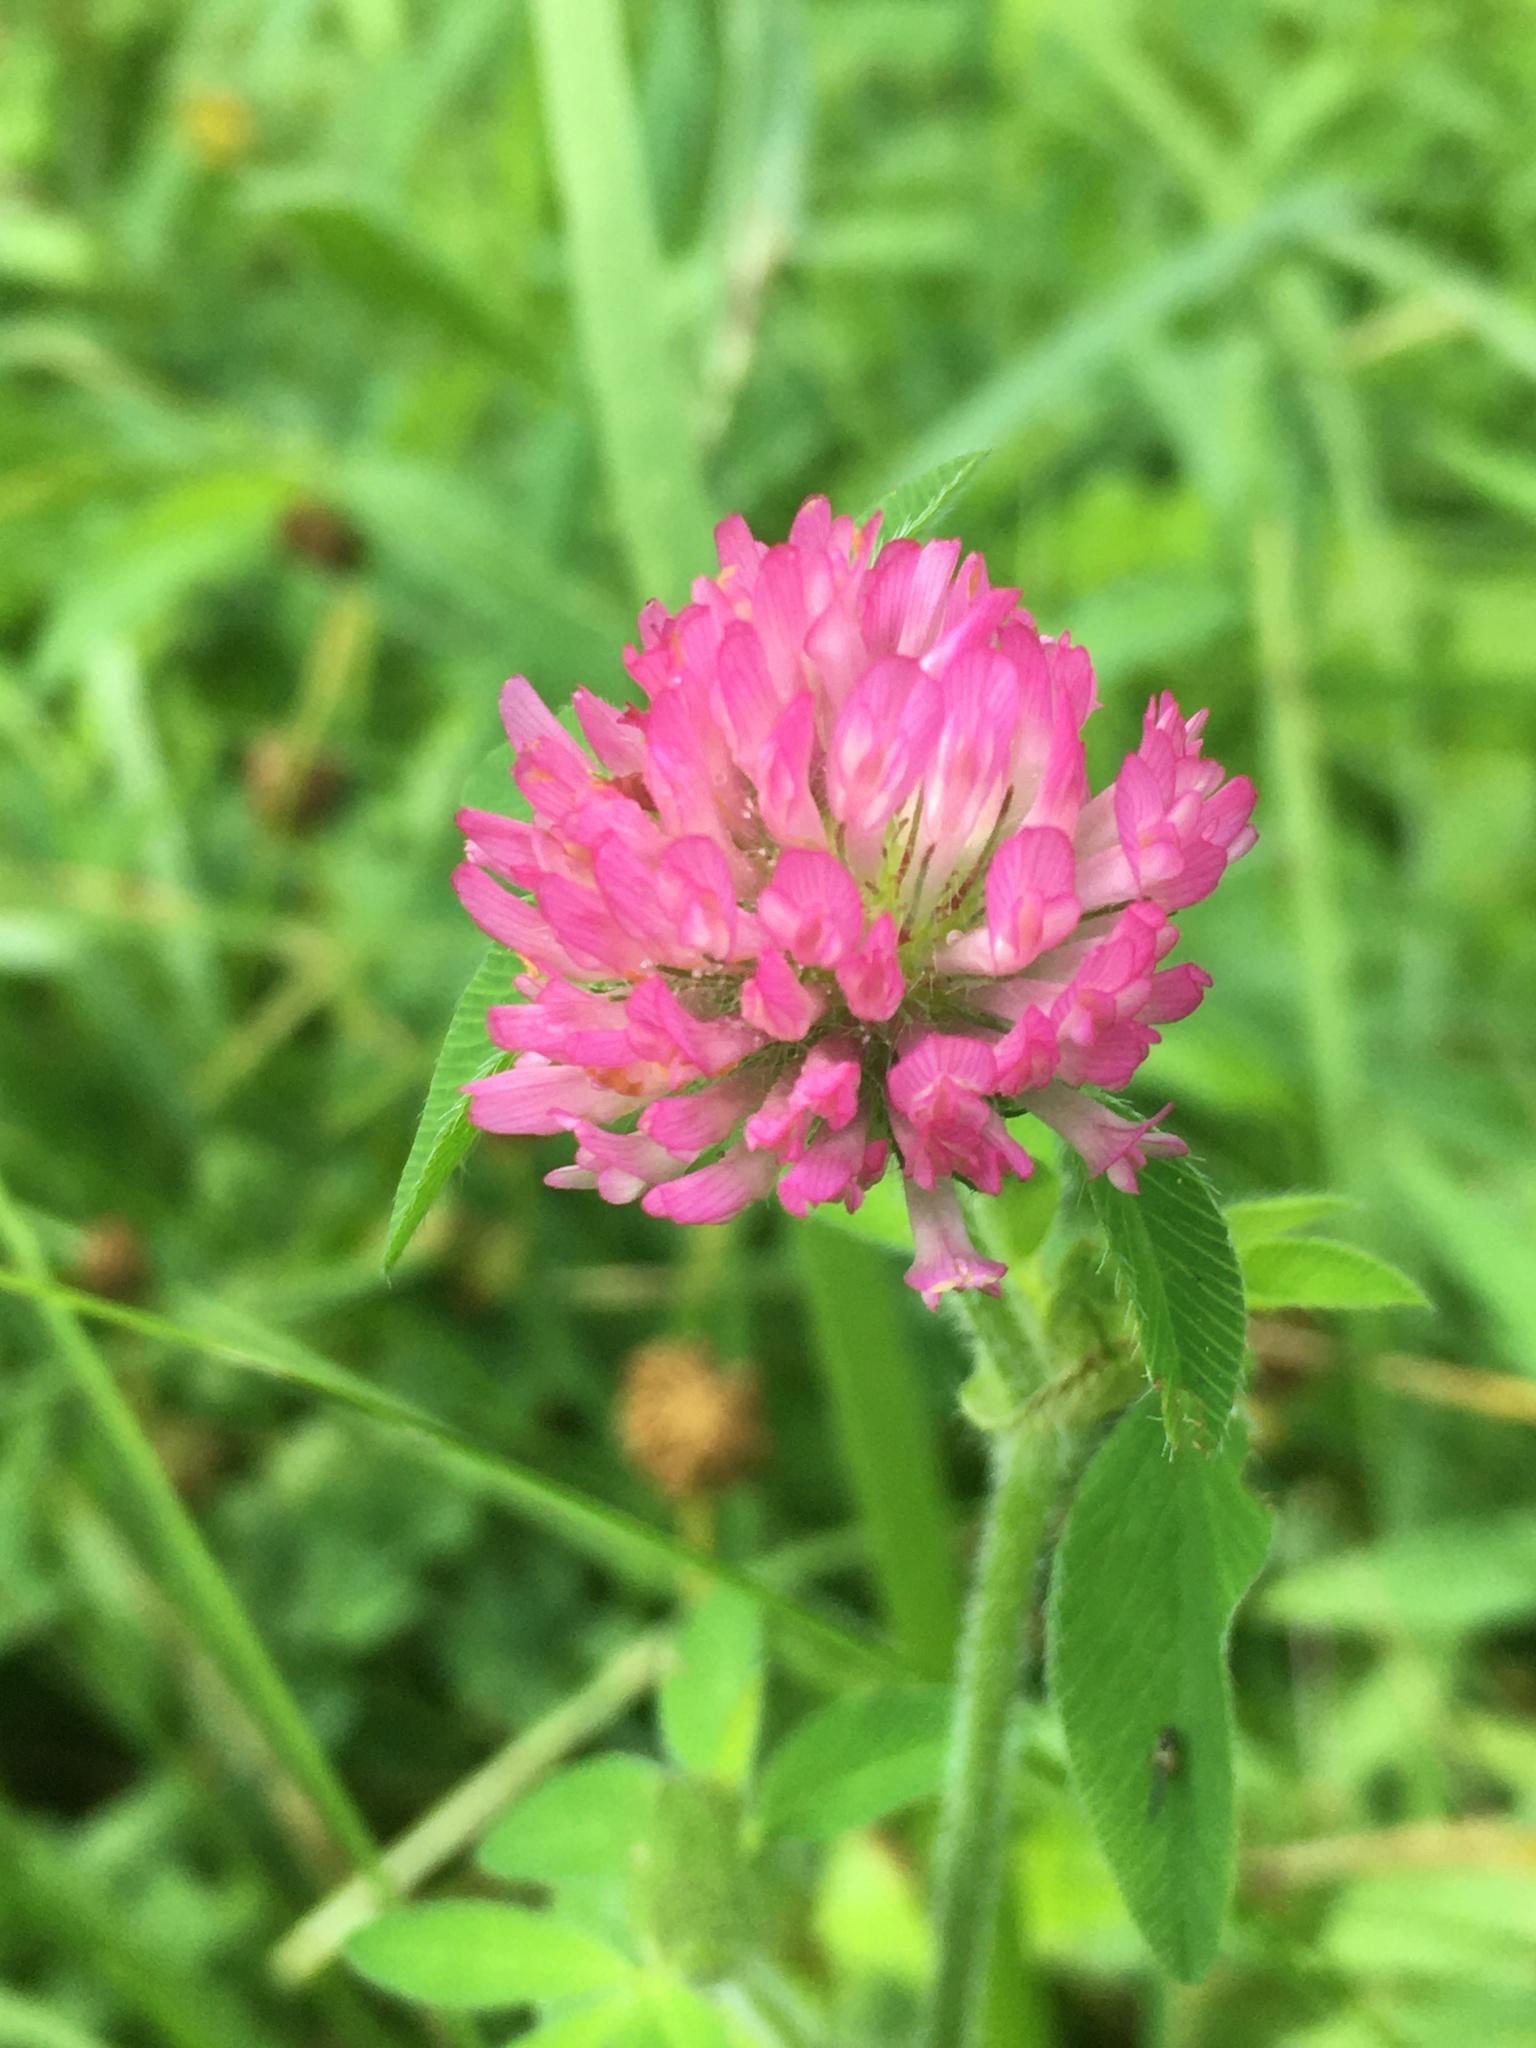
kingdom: Plantae
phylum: Tracheophyta
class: Magnoliopsida
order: Fabales
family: Fabaceae
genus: Trifolium
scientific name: Trifolium pratense
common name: Red clover
